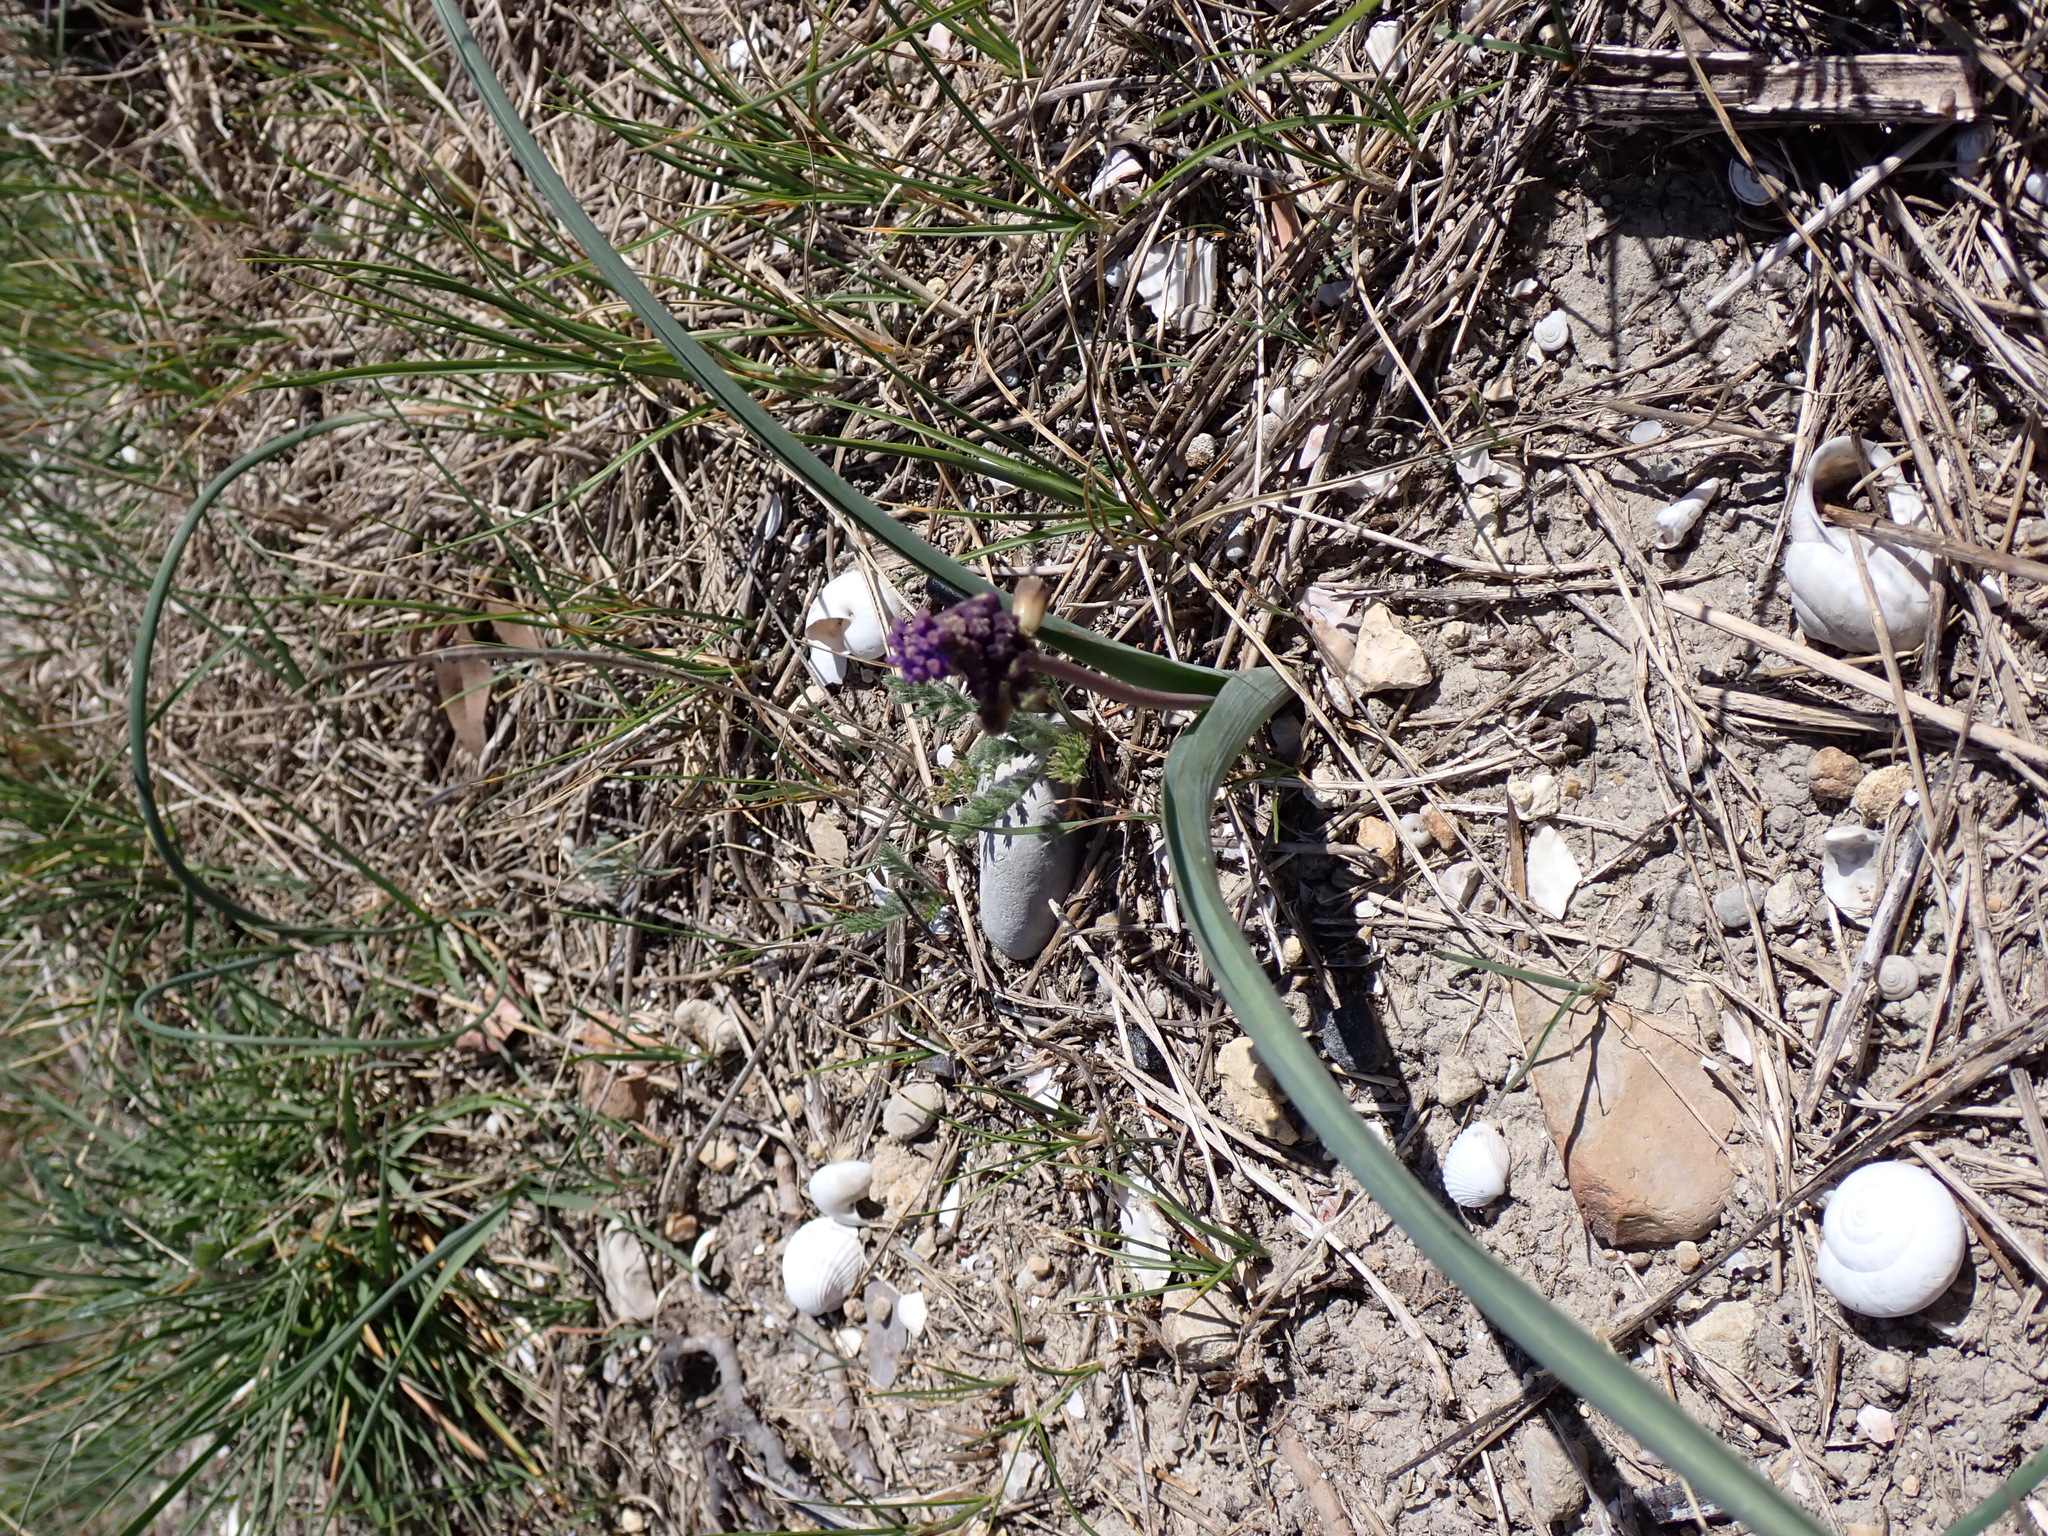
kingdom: Plantae
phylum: Tracheophyta
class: Liliopsida
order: Asparagales
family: Asparagaceae
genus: Muscari
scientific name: Muscari comosum
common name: Tassel hyacinth
